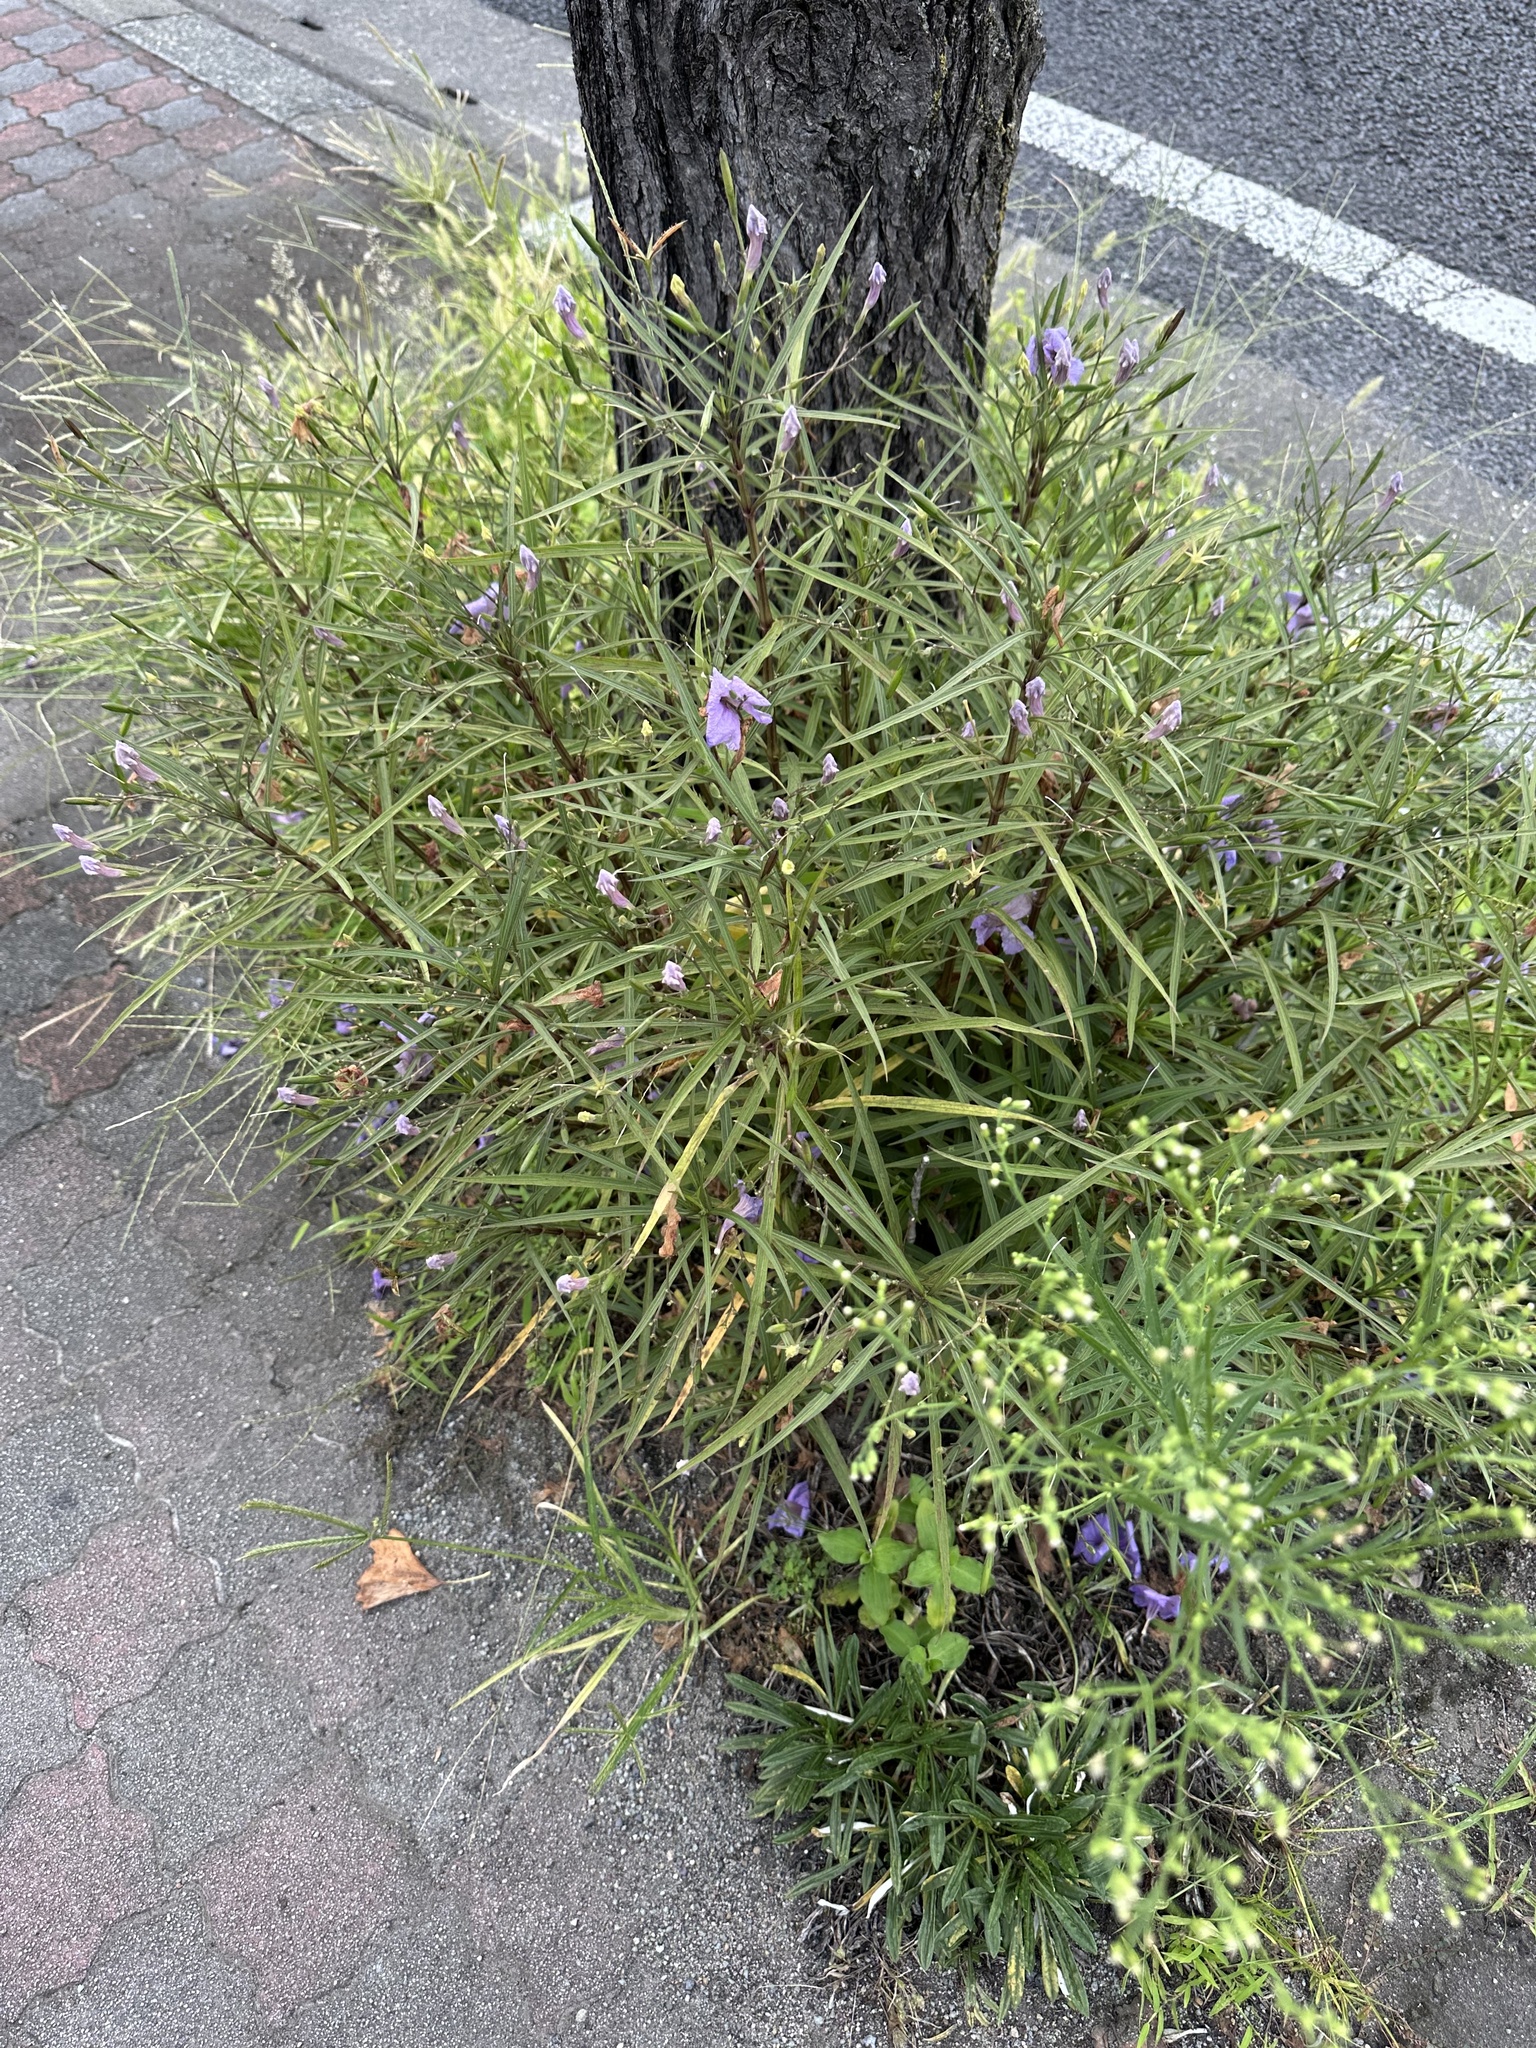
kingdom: Plantae
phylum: Tracheophyta
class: Magnoliopsida
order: Lamiales
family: Acanthaceae
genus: Ruellia
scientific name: Ruellia simplex
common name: Softseed wild petunia
